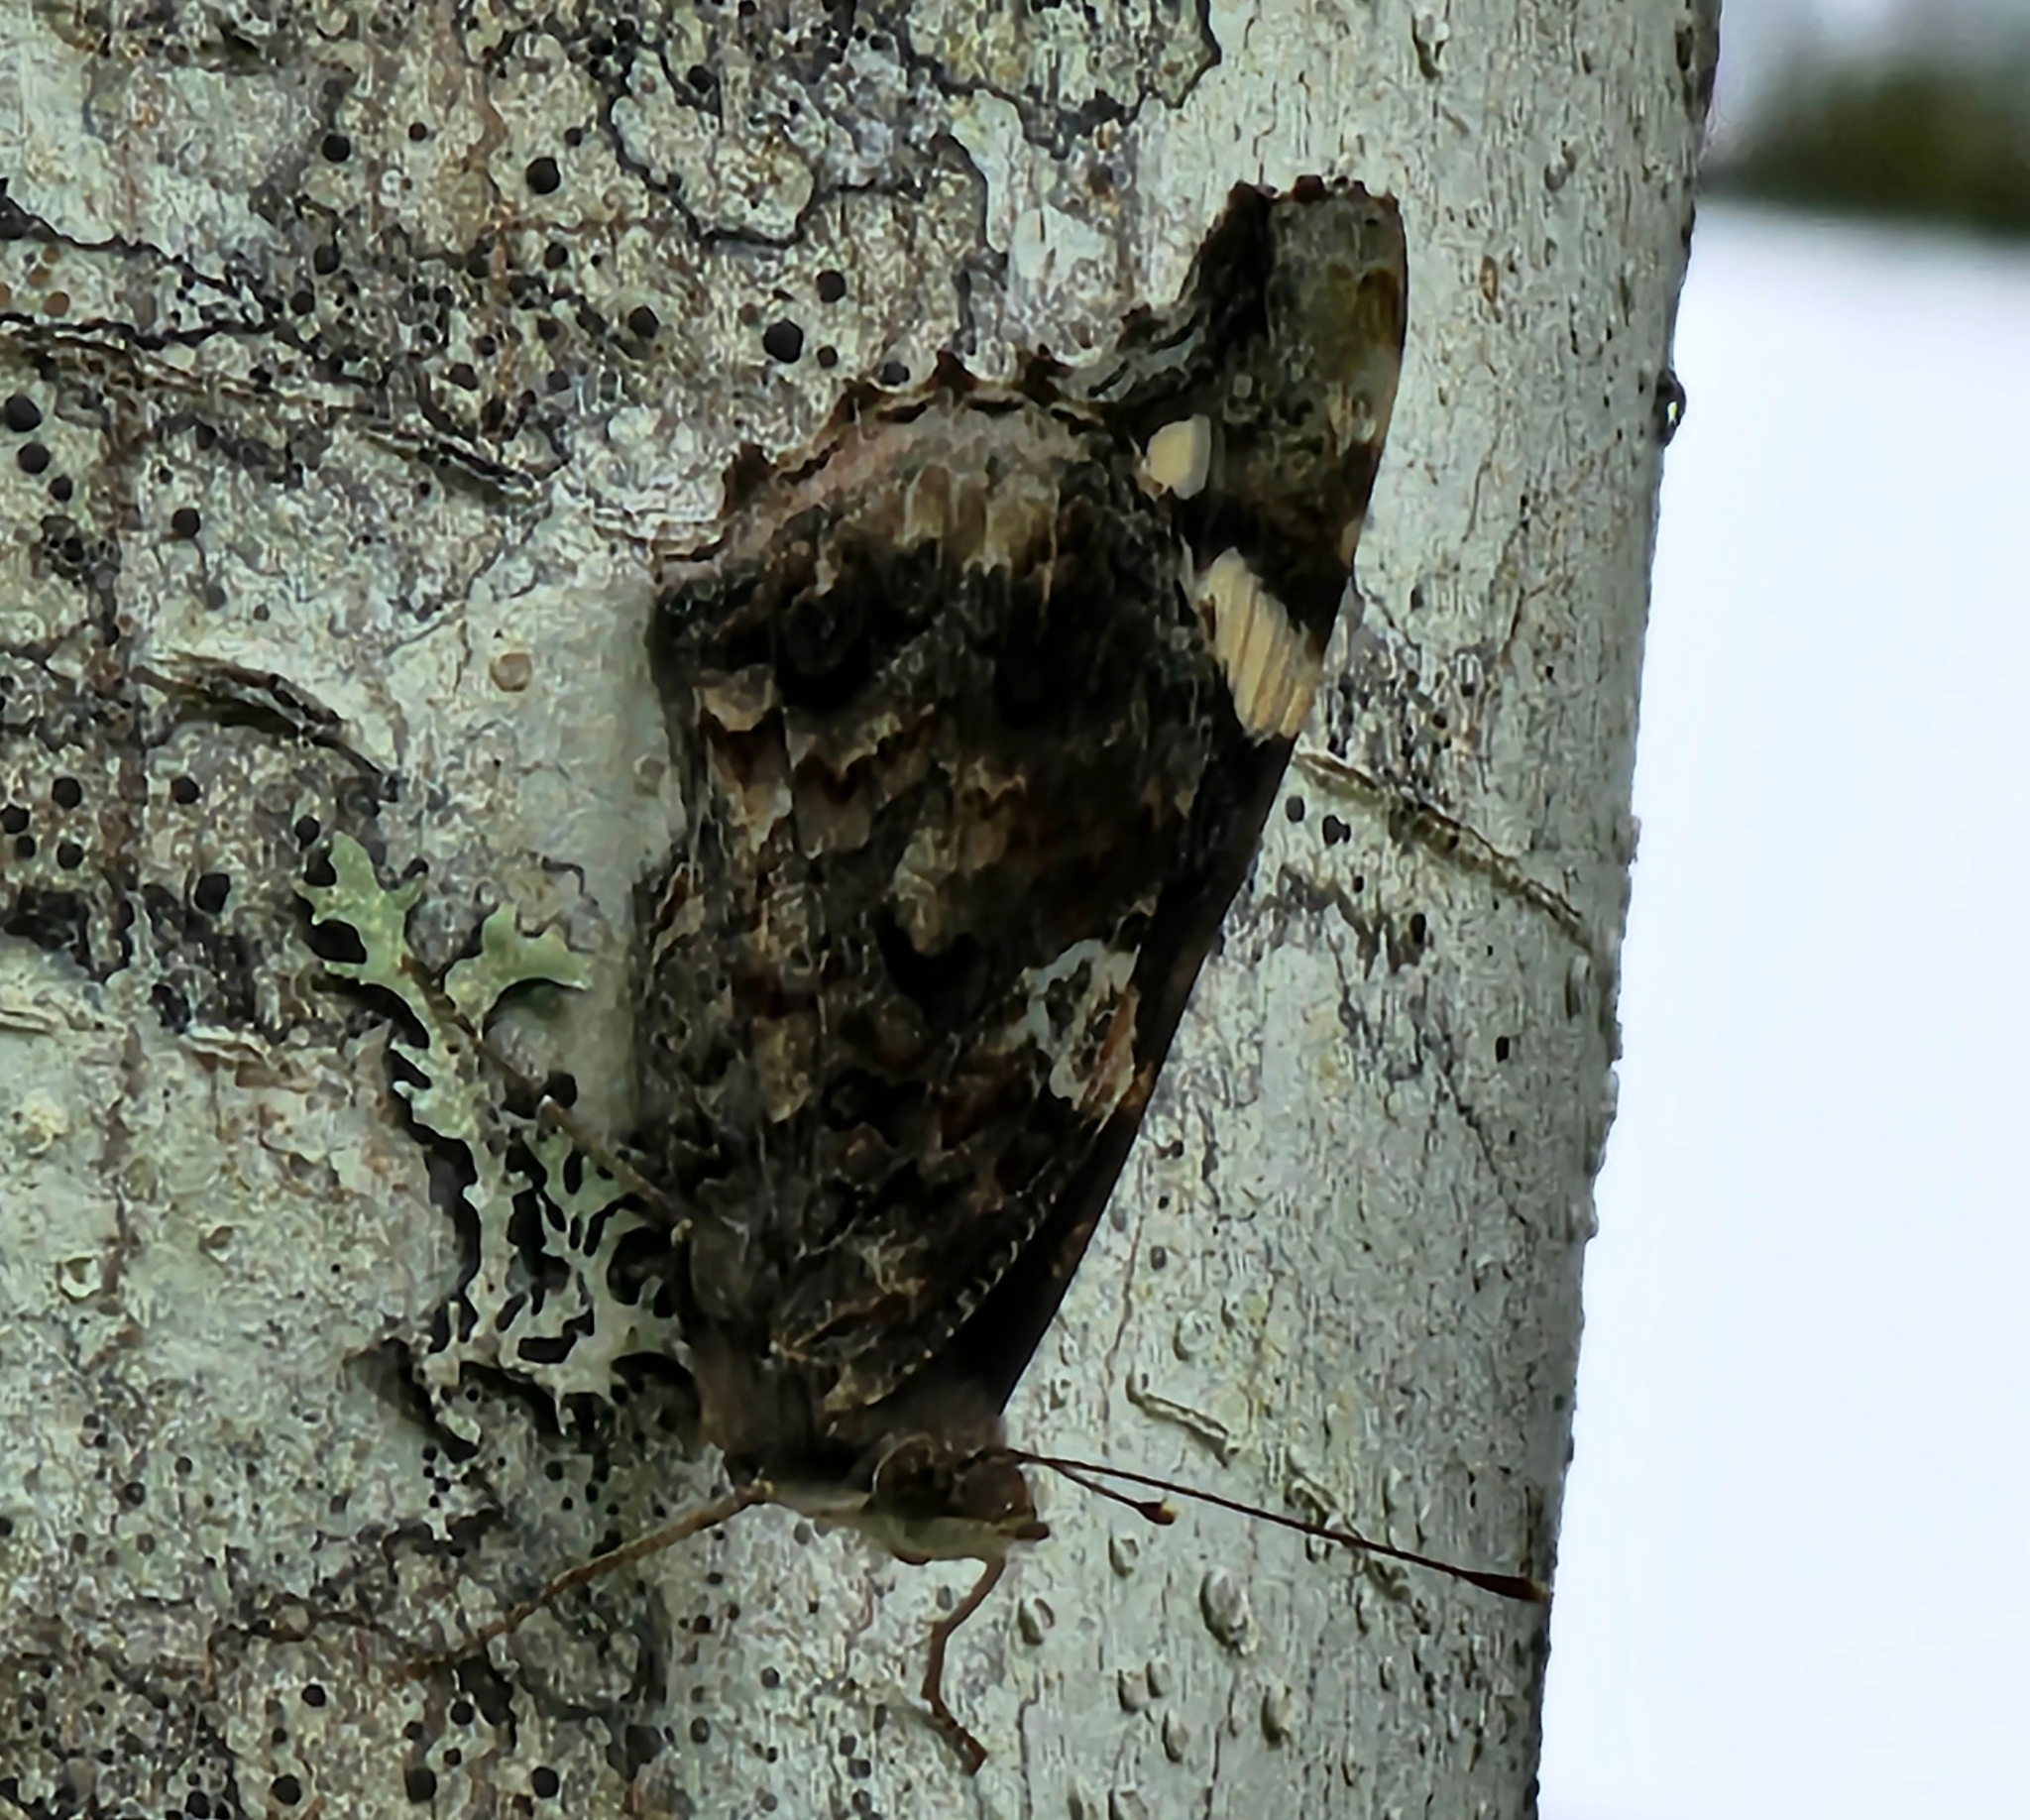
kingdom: Animalia
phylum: Arthropoda
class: Insecta
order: Lepidoptera
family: Nymphalidae
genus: Vanessa
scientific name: Vanessa atalanta
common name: Red admiral
